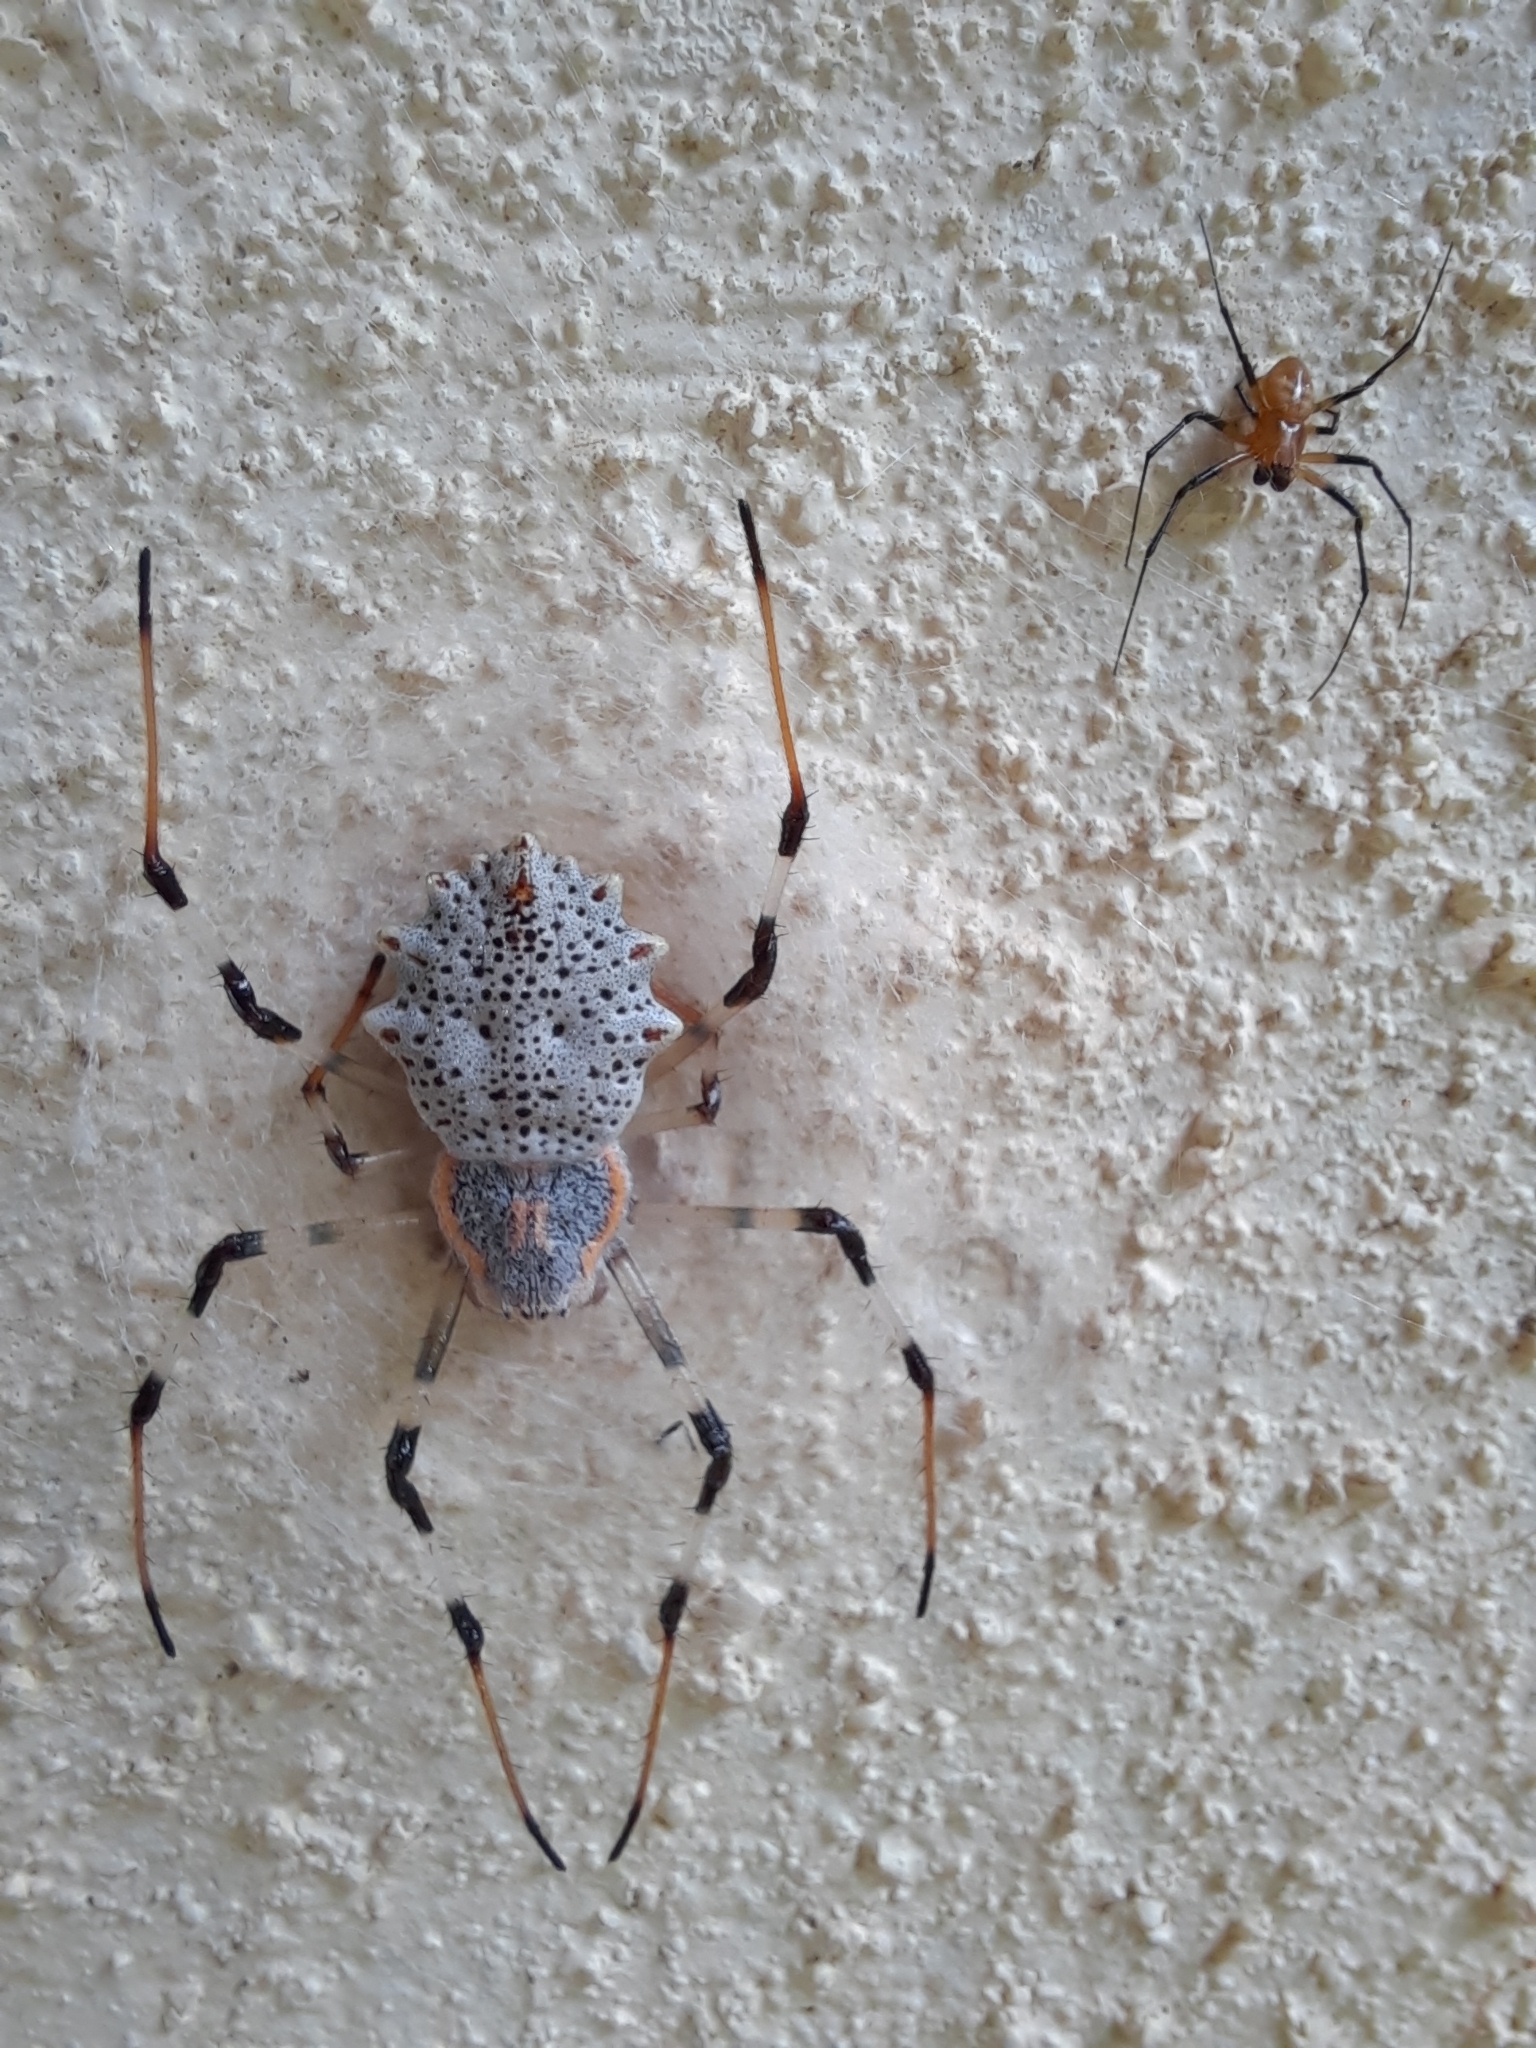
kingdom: Animalia
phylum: Arthropoda
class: Arachnida
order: Araneae
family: Araneidae
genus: Herennia
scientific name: Herennia multipuncta
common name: Spotted coin spider
